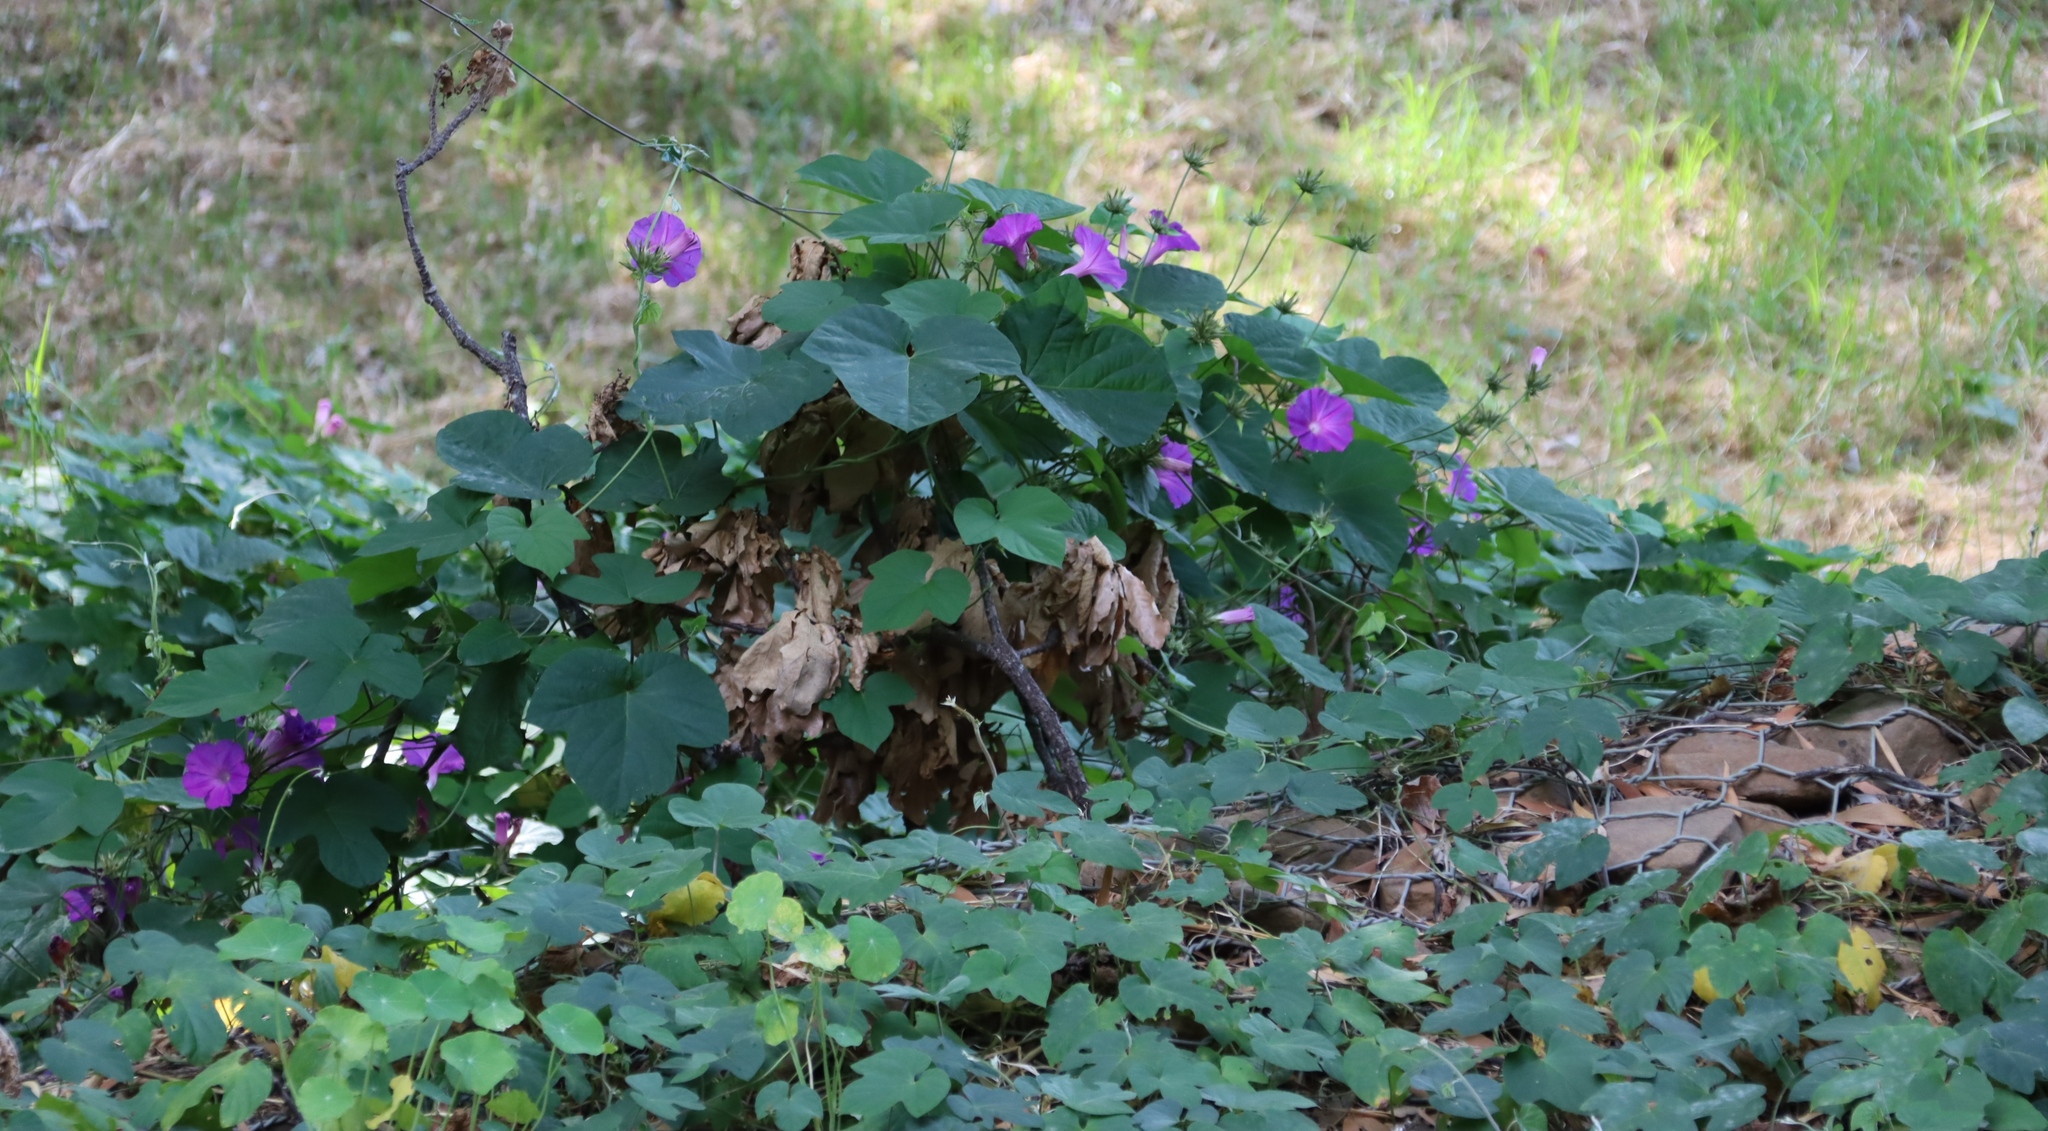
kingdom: Plantae
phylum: Tracheophyta
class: Magnoliopsida
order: Solanales
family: Convolvulaceae
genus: Ipomoea
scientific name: Ipomoea indica
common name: Blue dawnflower
